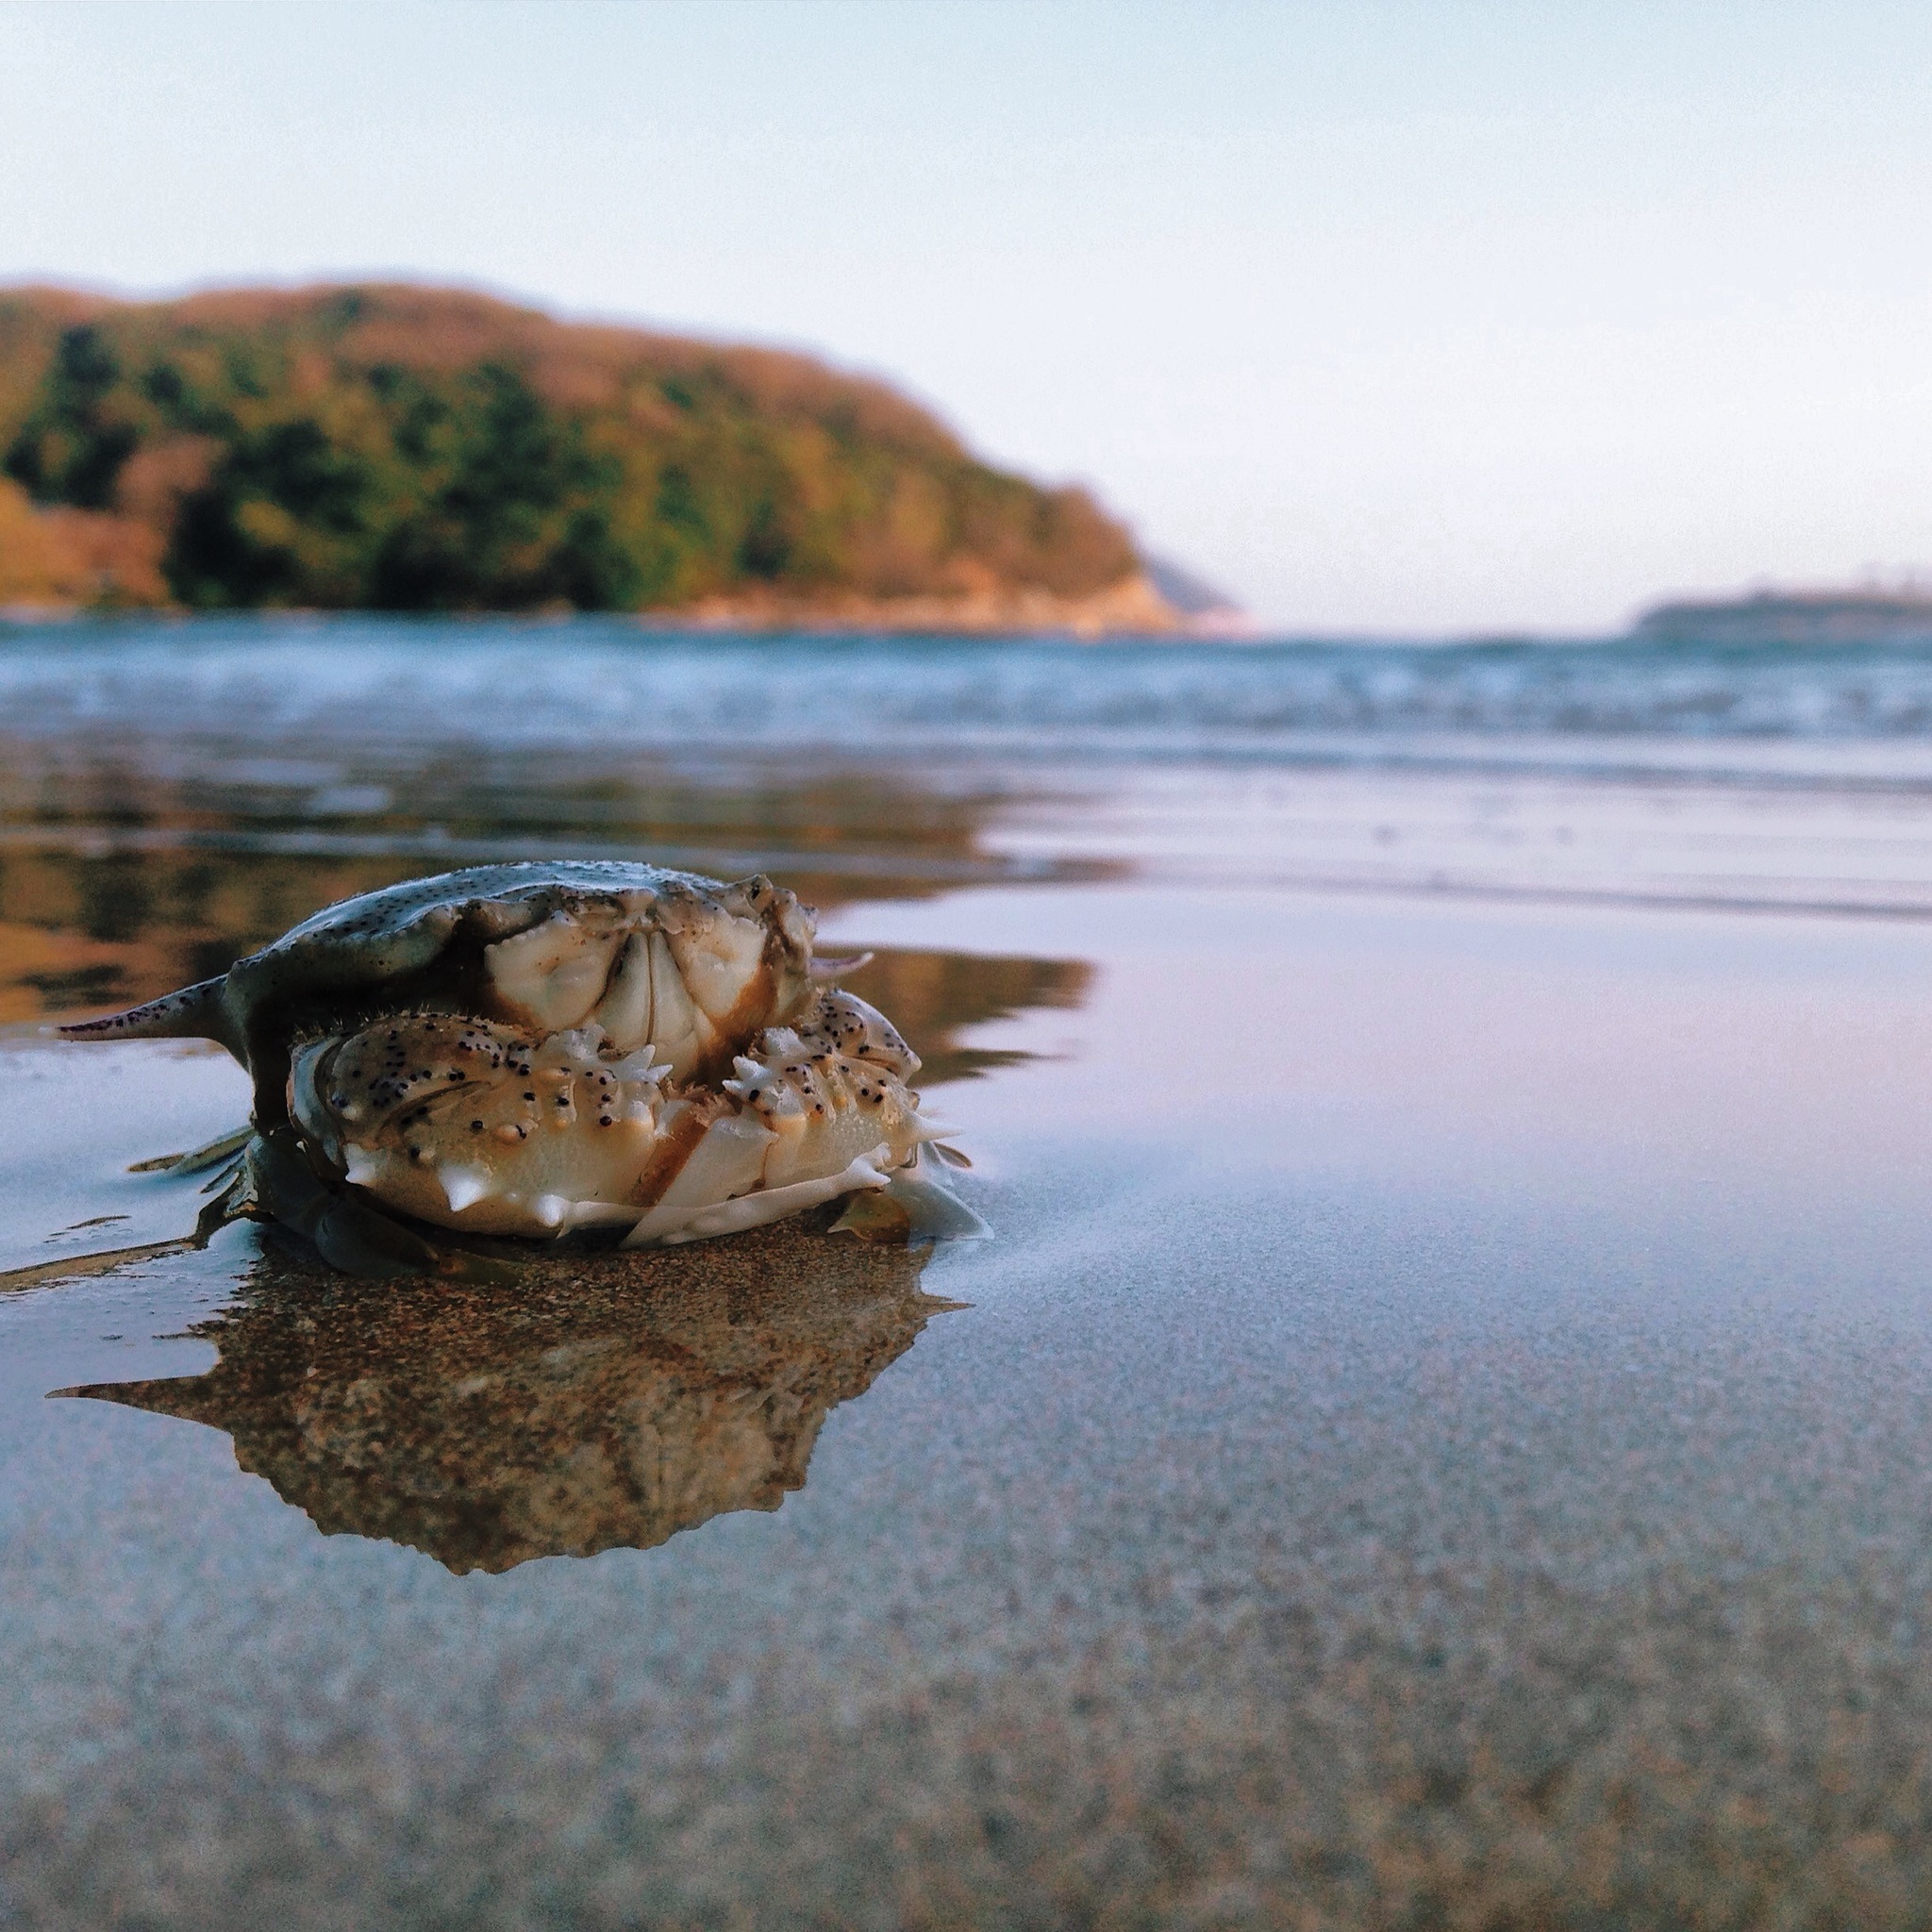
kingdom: Animalia
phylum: Arthropoda
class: Malacostraca
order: Decapoda
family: Matutidae
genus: Matuta
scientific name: Matuta victor
